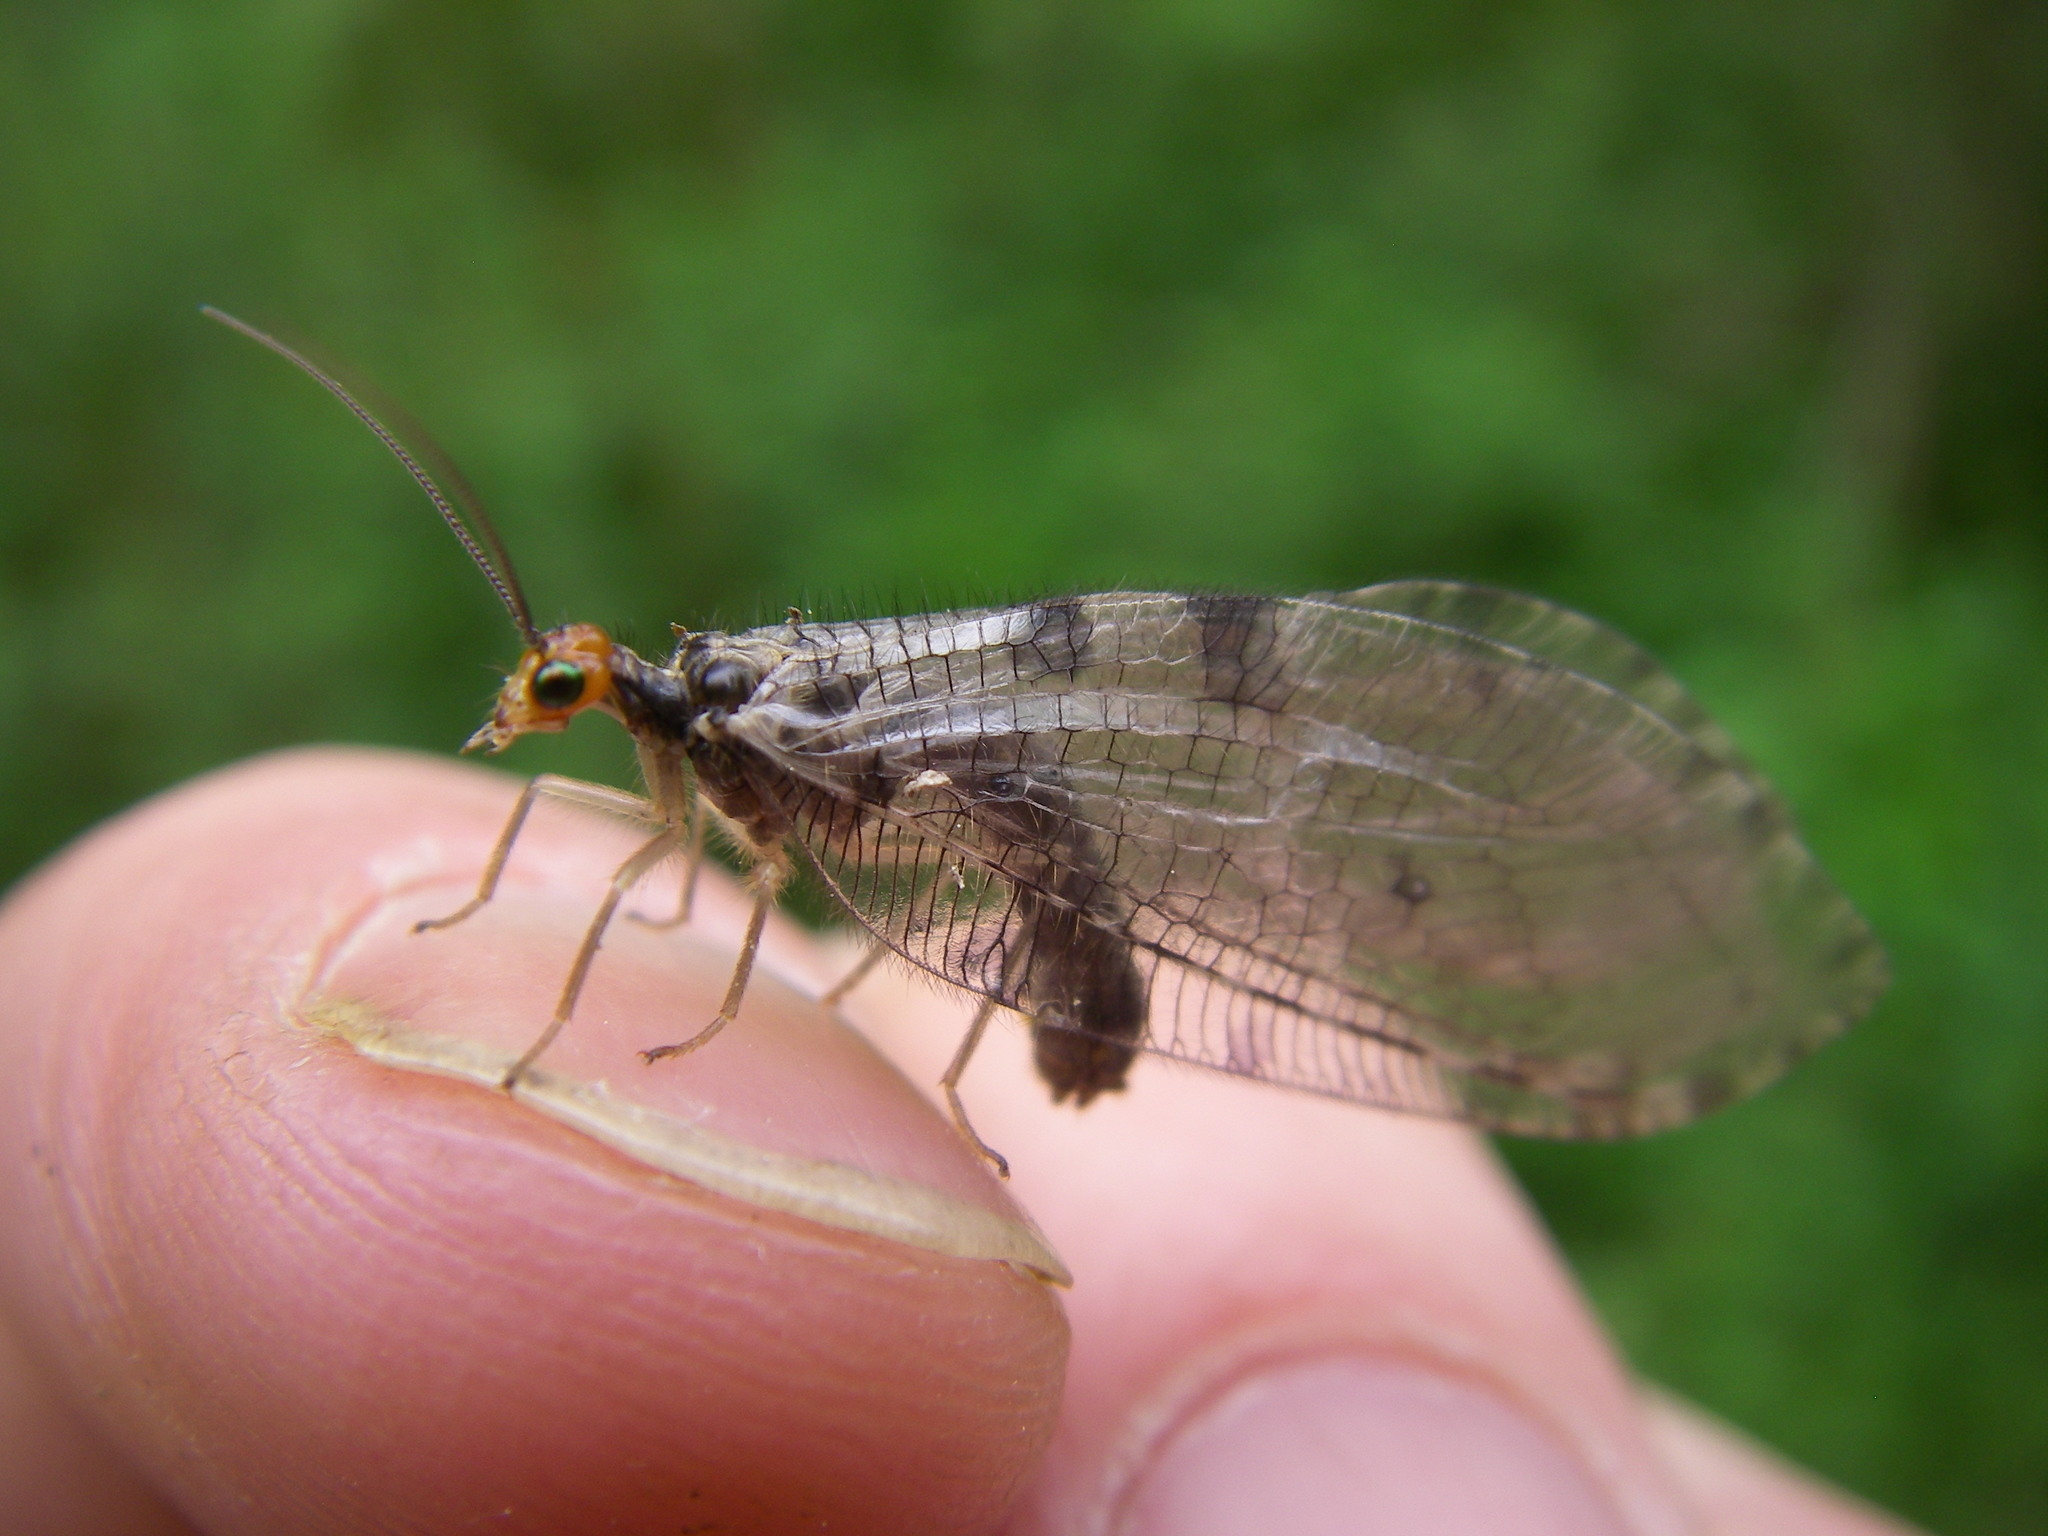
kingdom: Animalia
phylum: Arthropoda
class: Insecta
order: Neuroptera
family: Osmylidae
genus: Osmylus
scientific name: Osmylus fulvicephalus
